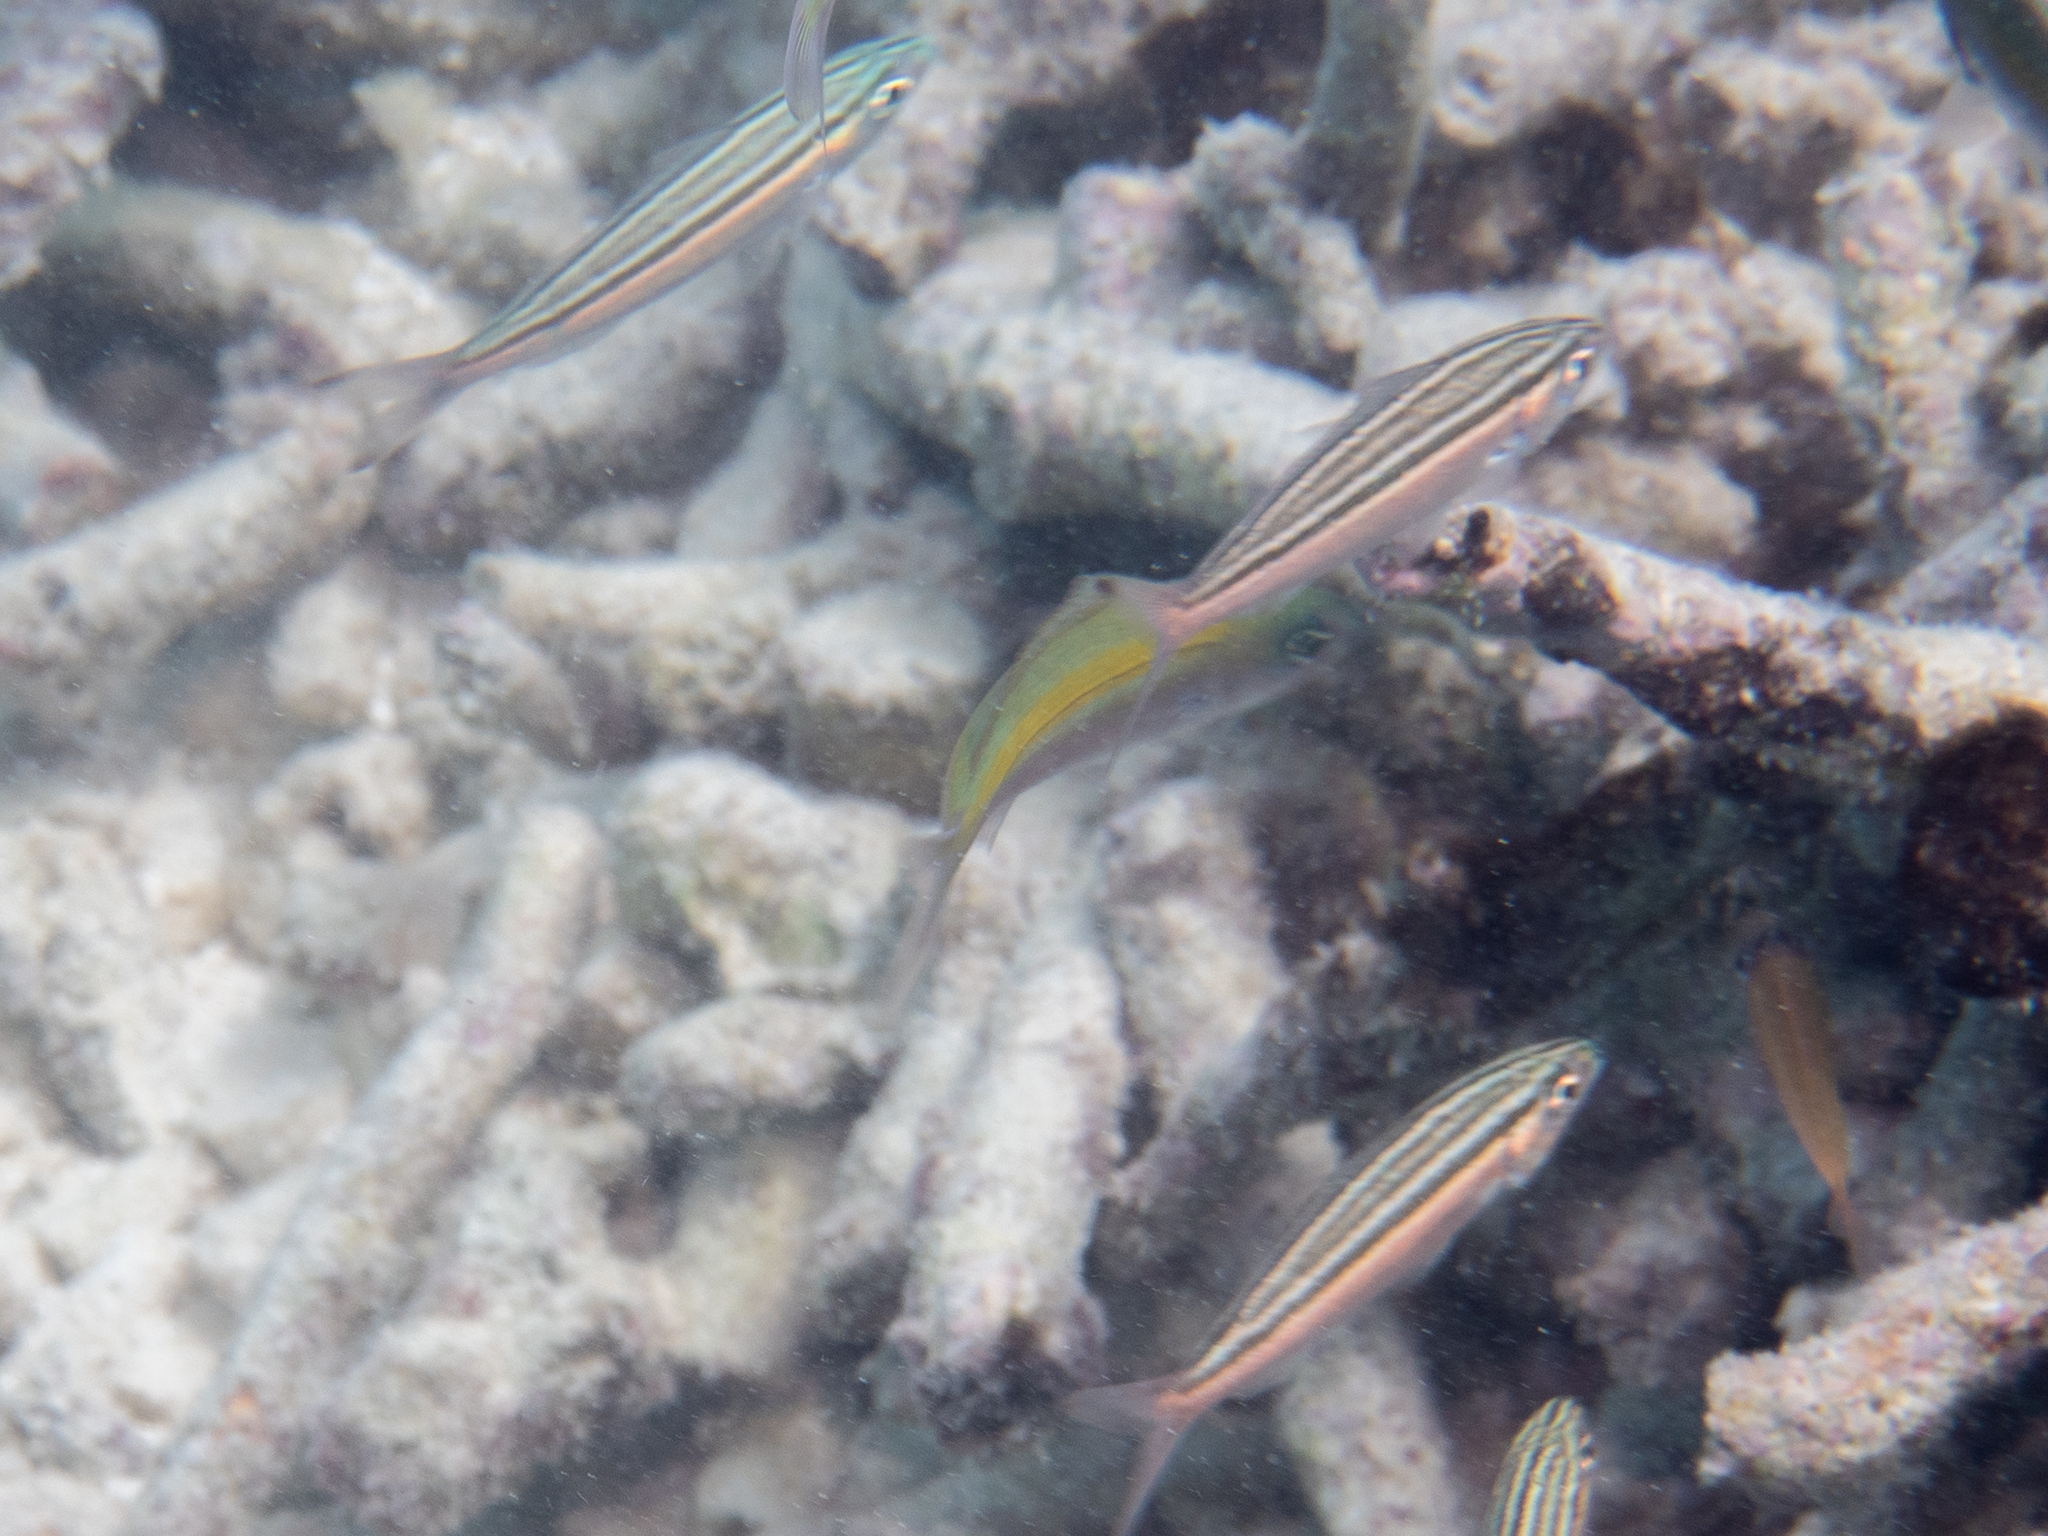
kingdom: Animalia
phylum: Chordata
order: Perciformes
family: Caesionidae
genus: Pterocaesio
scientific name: Pterocaesio trilineata
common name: Striped fusilier
